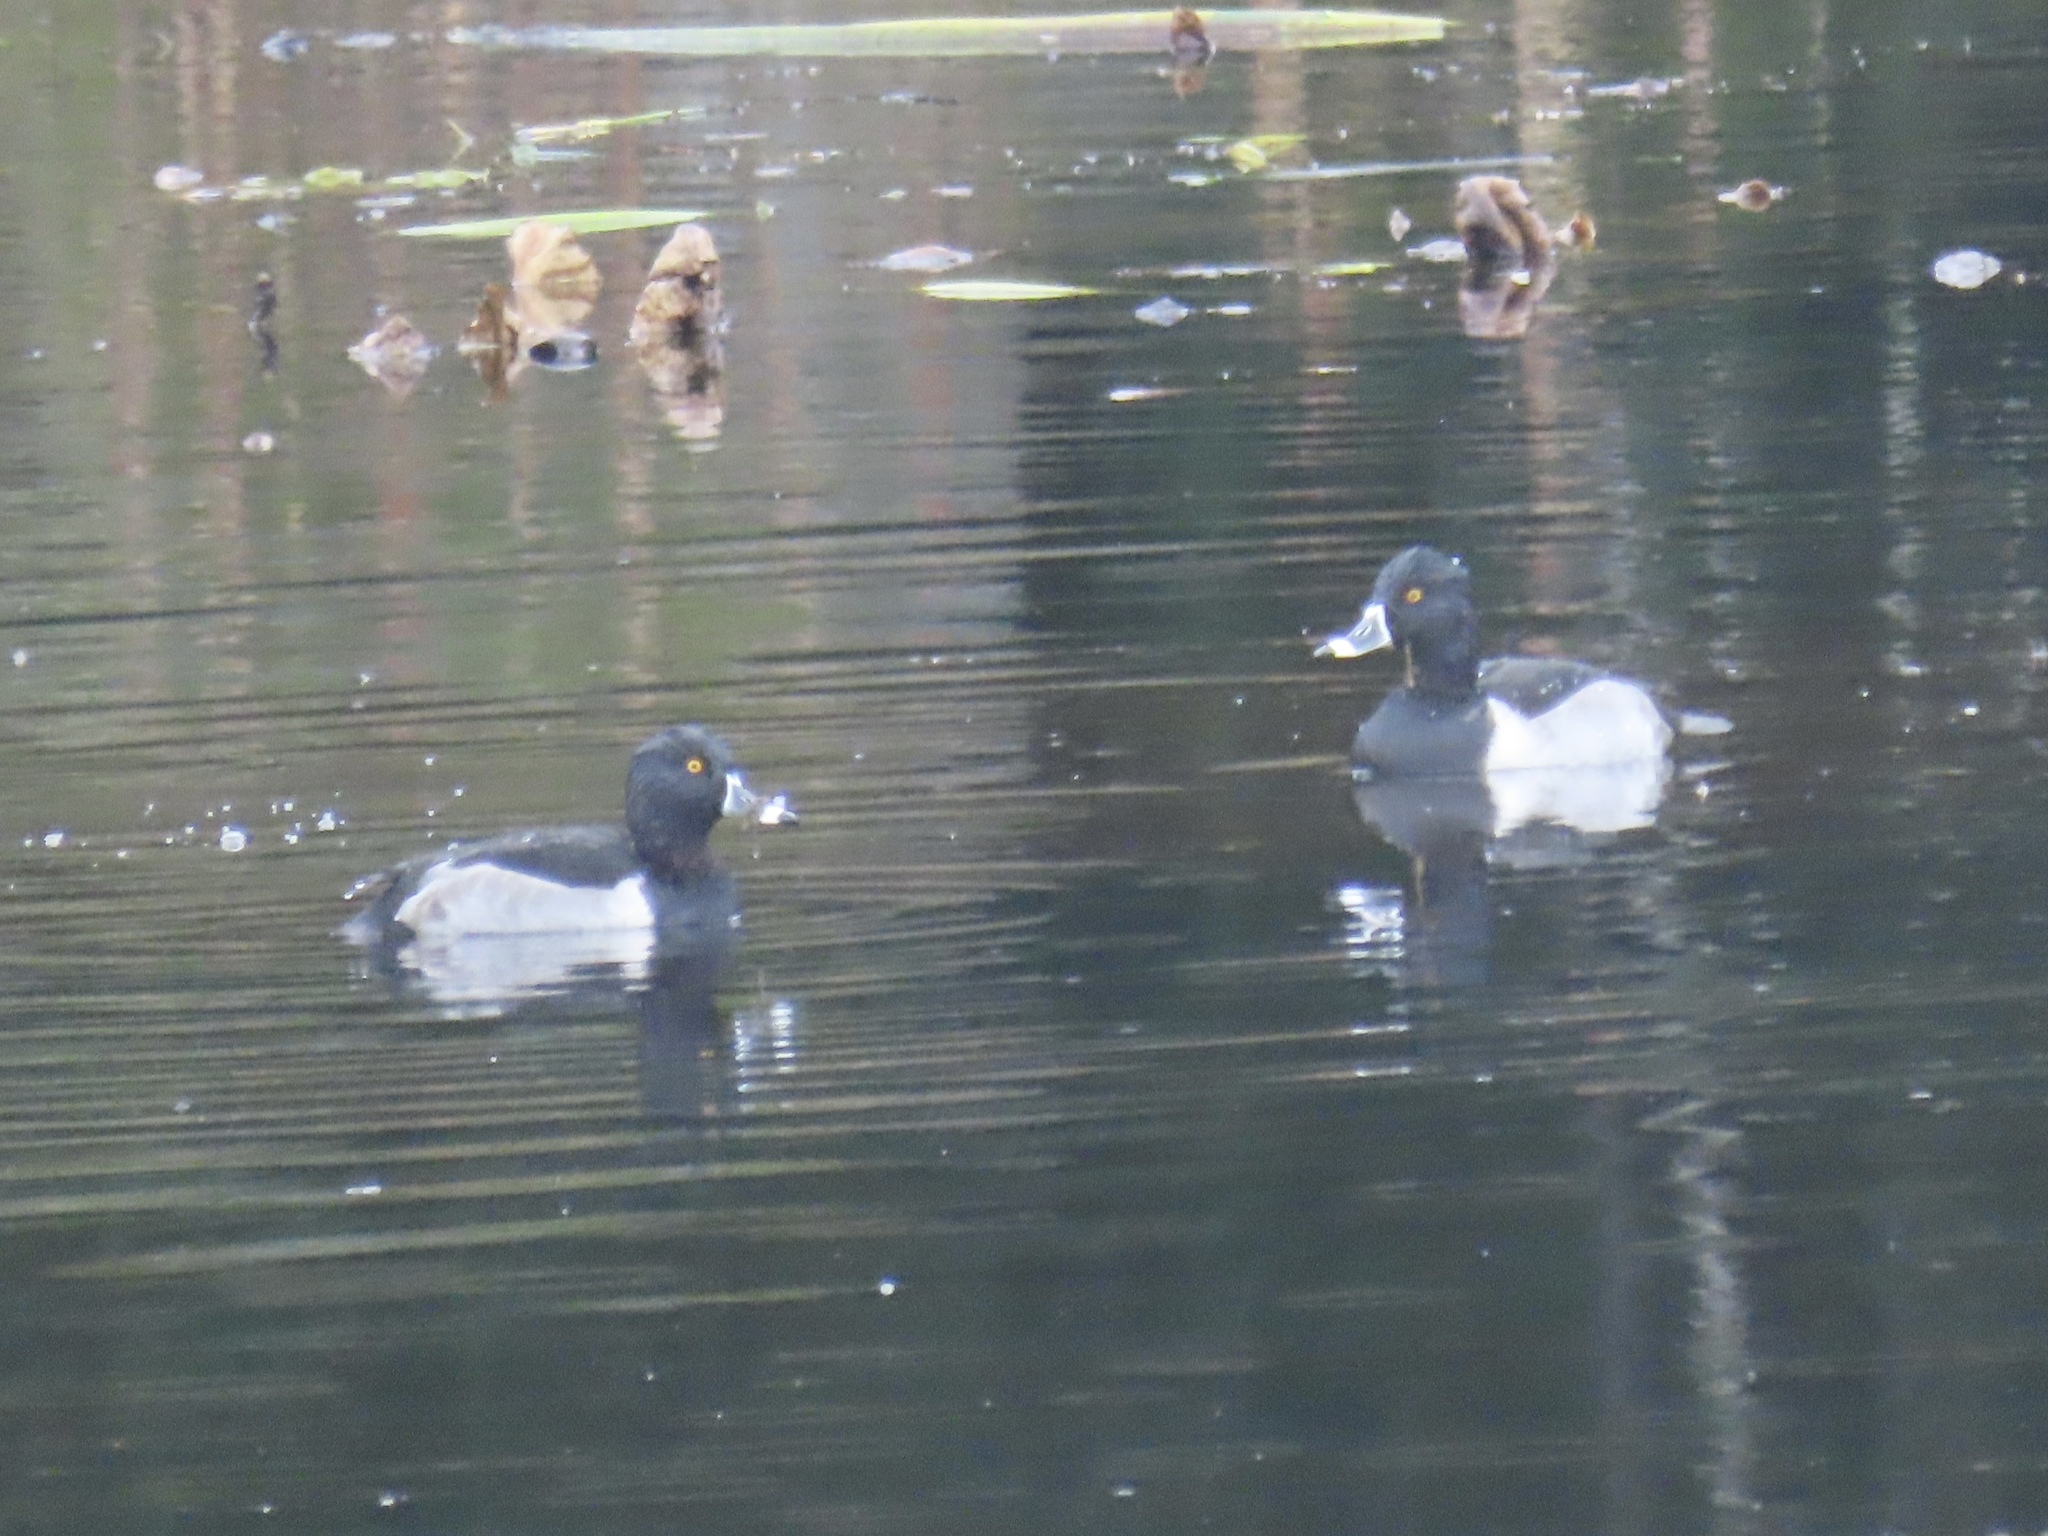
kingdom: Animalia
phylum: Chordata
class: Aves
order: Anseriformes
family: Anatidae
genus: Aythya
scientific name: Aythya collaris
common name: Ring-necked duck
